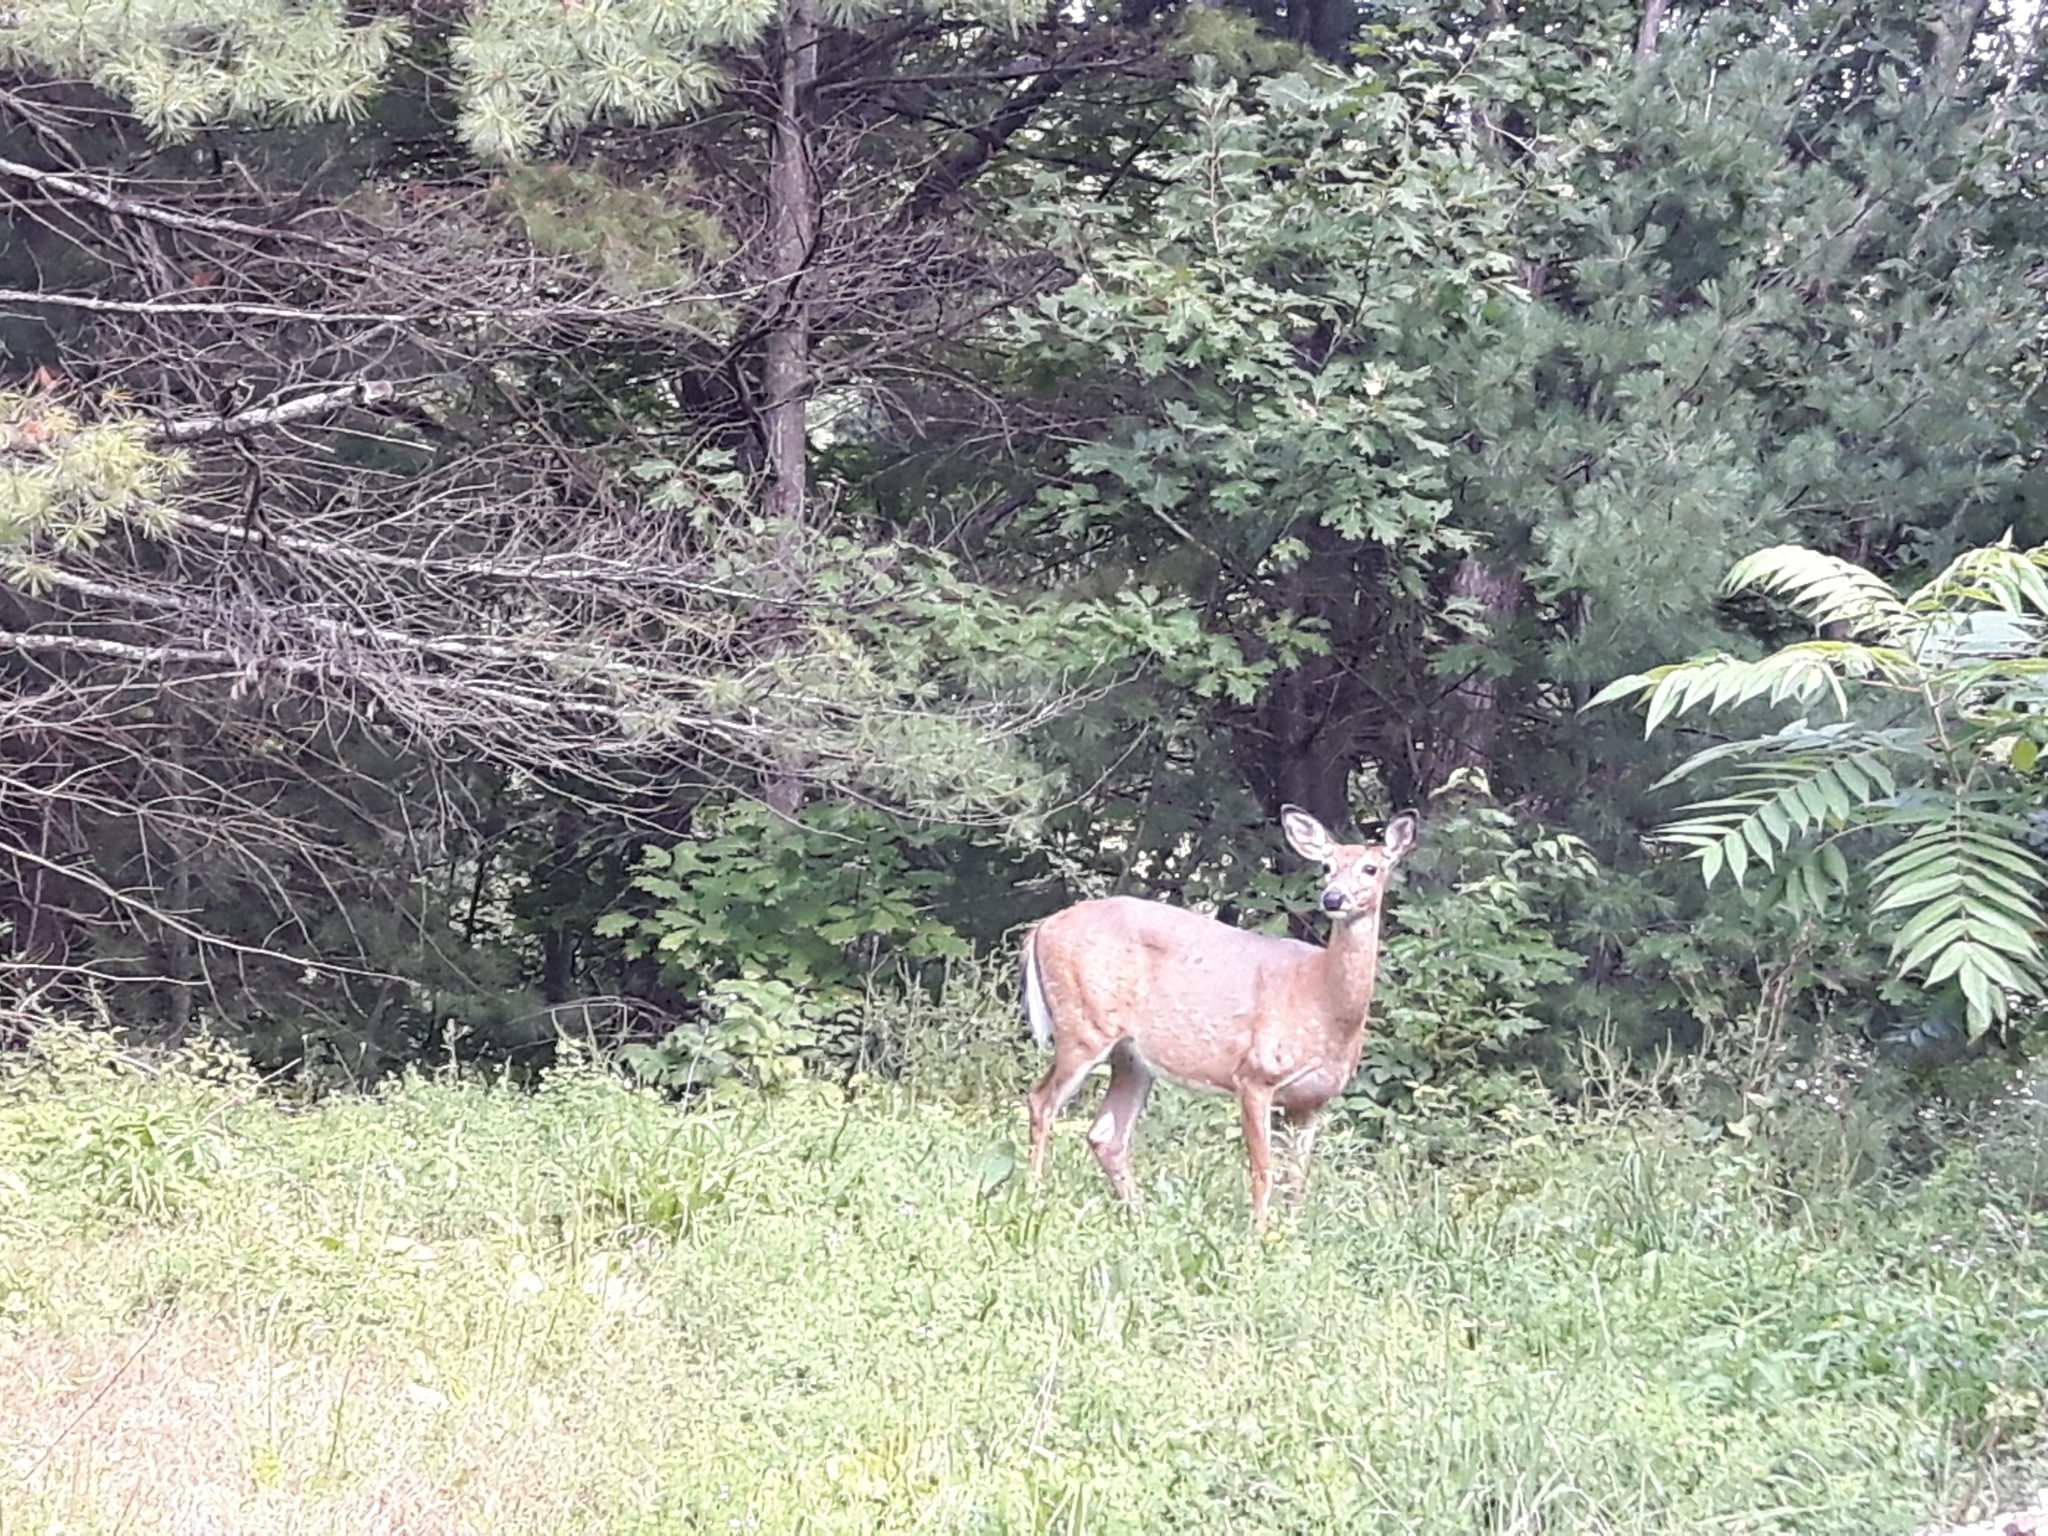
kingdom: Animalia
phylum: Chordata
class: Mammalia
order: Artiodactyla
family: Cervidae
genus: Odocoileus
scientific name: Odocoileus virginianus
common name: White-tailed deer
